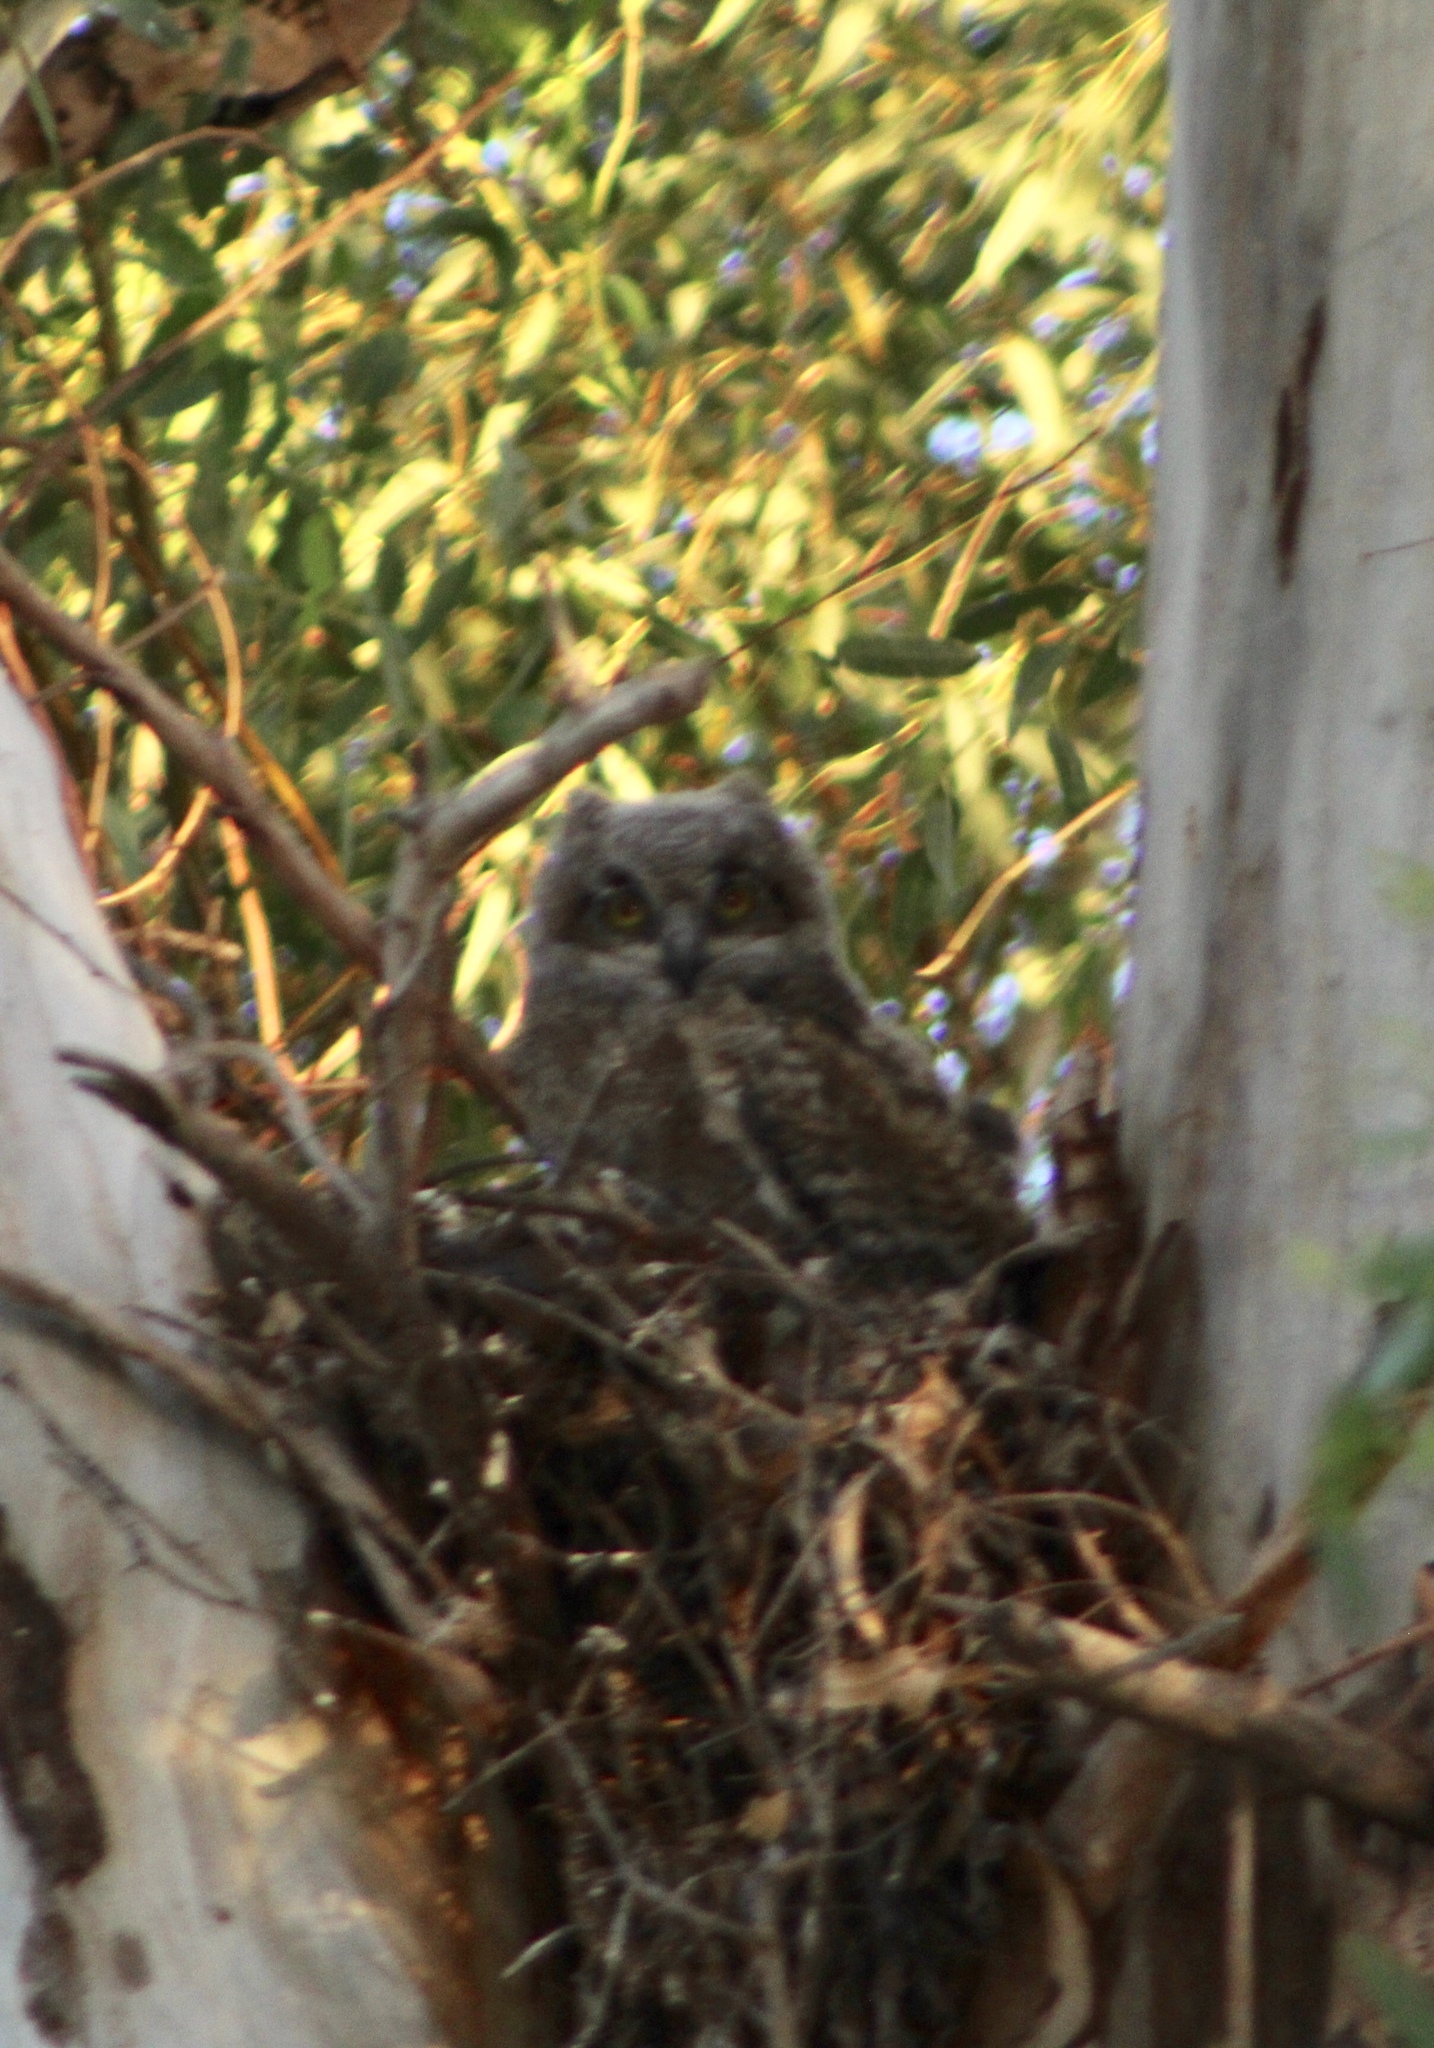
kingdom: Animalia
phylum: Chordata
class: Aves
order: Strigiformes
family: Strigidae
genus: Bubo
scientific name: Bubo virginianus
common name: Great horned owl
